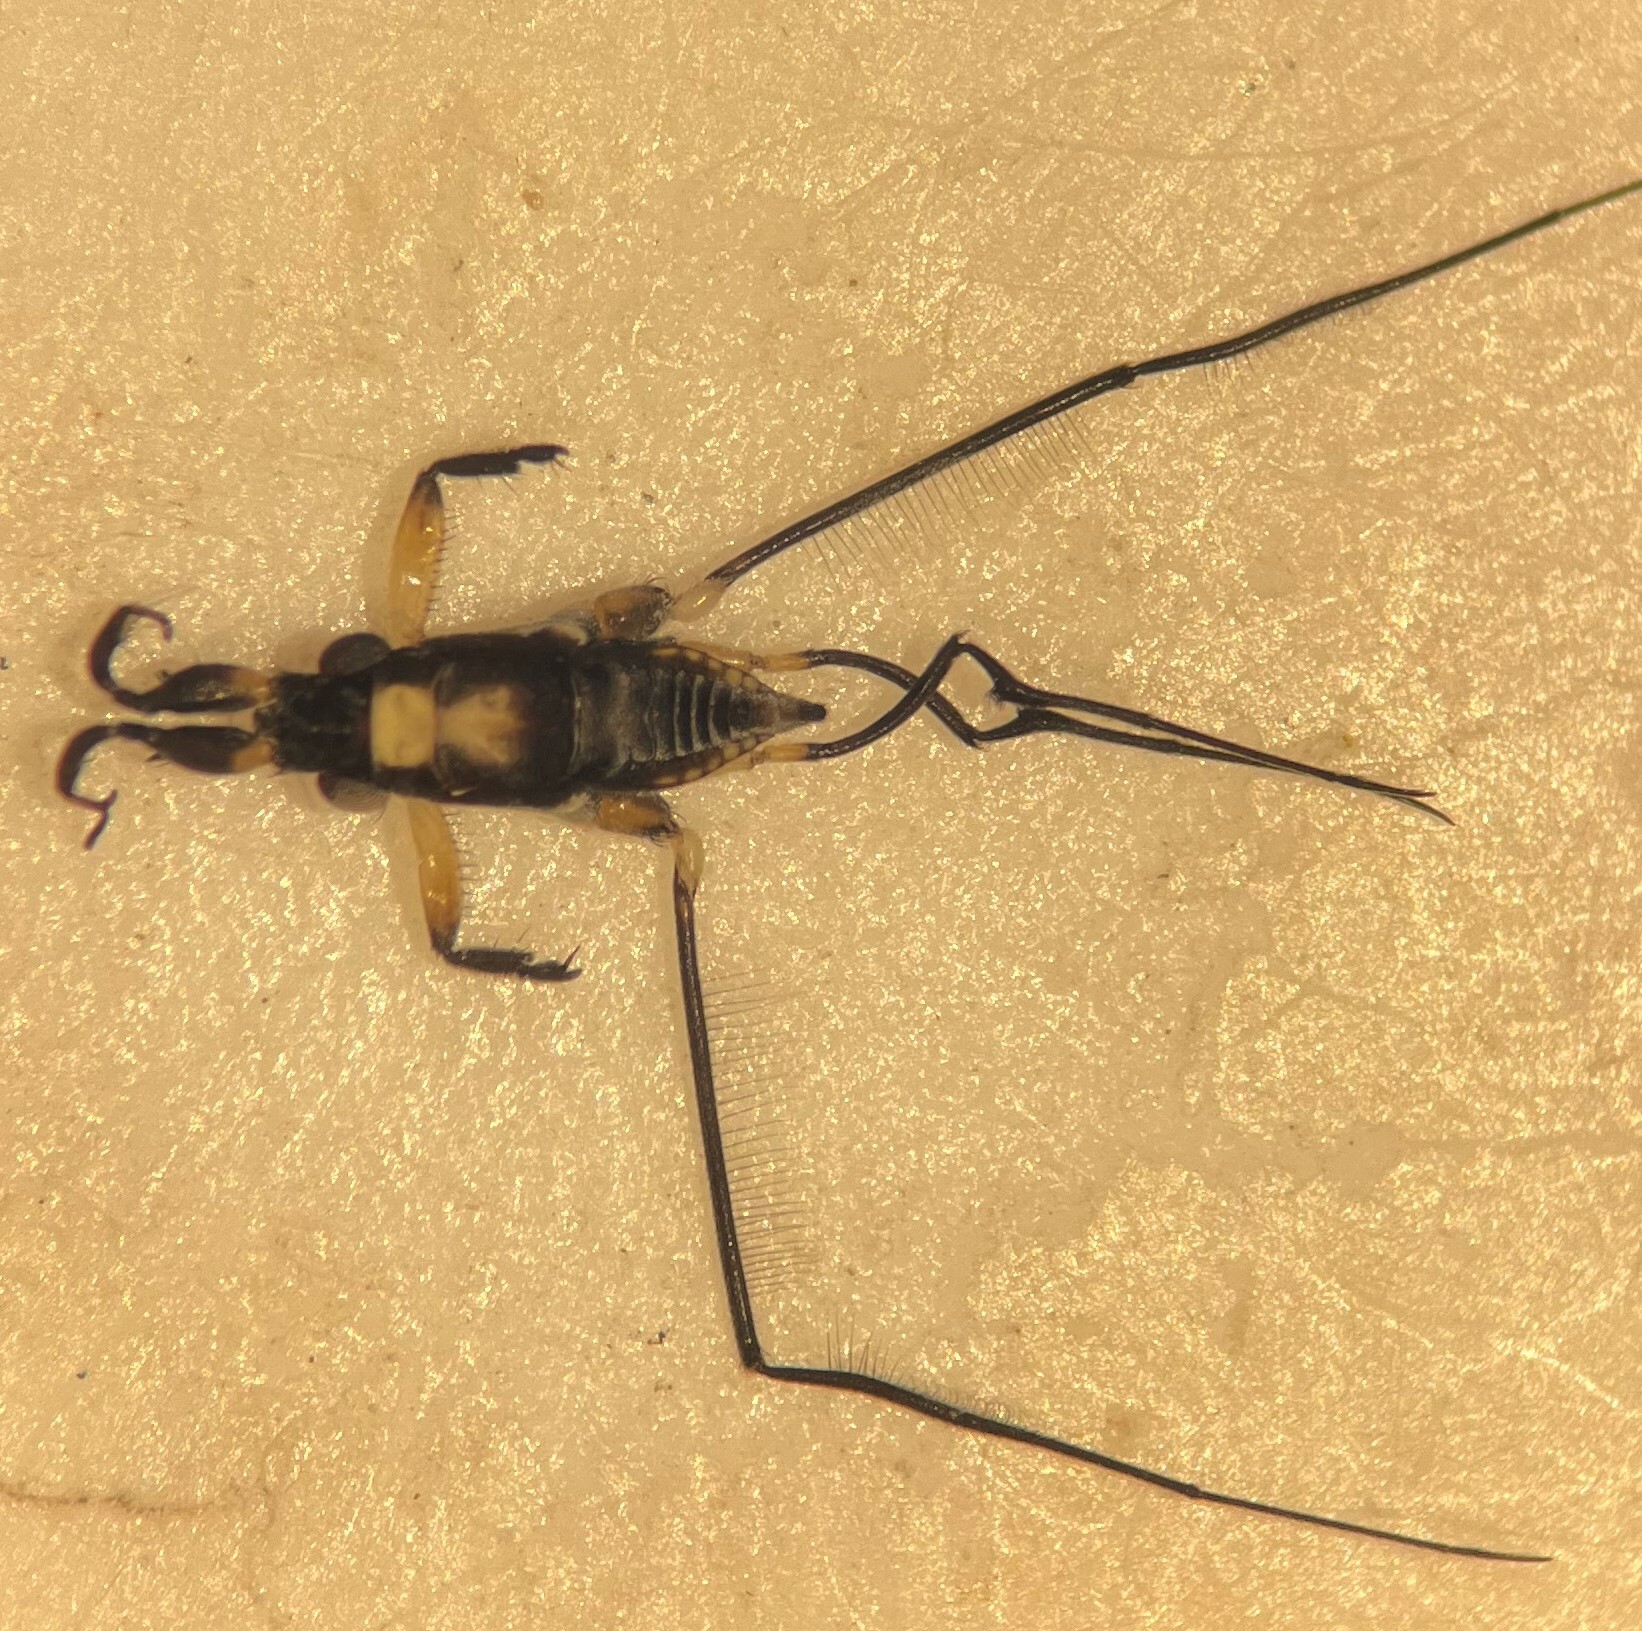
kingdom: Animalia
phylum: Arthropoda
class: Insecta
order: Hemiptera
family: Gerridae
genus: Rheumatobates
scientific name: Rheumatobates hungerfordi
